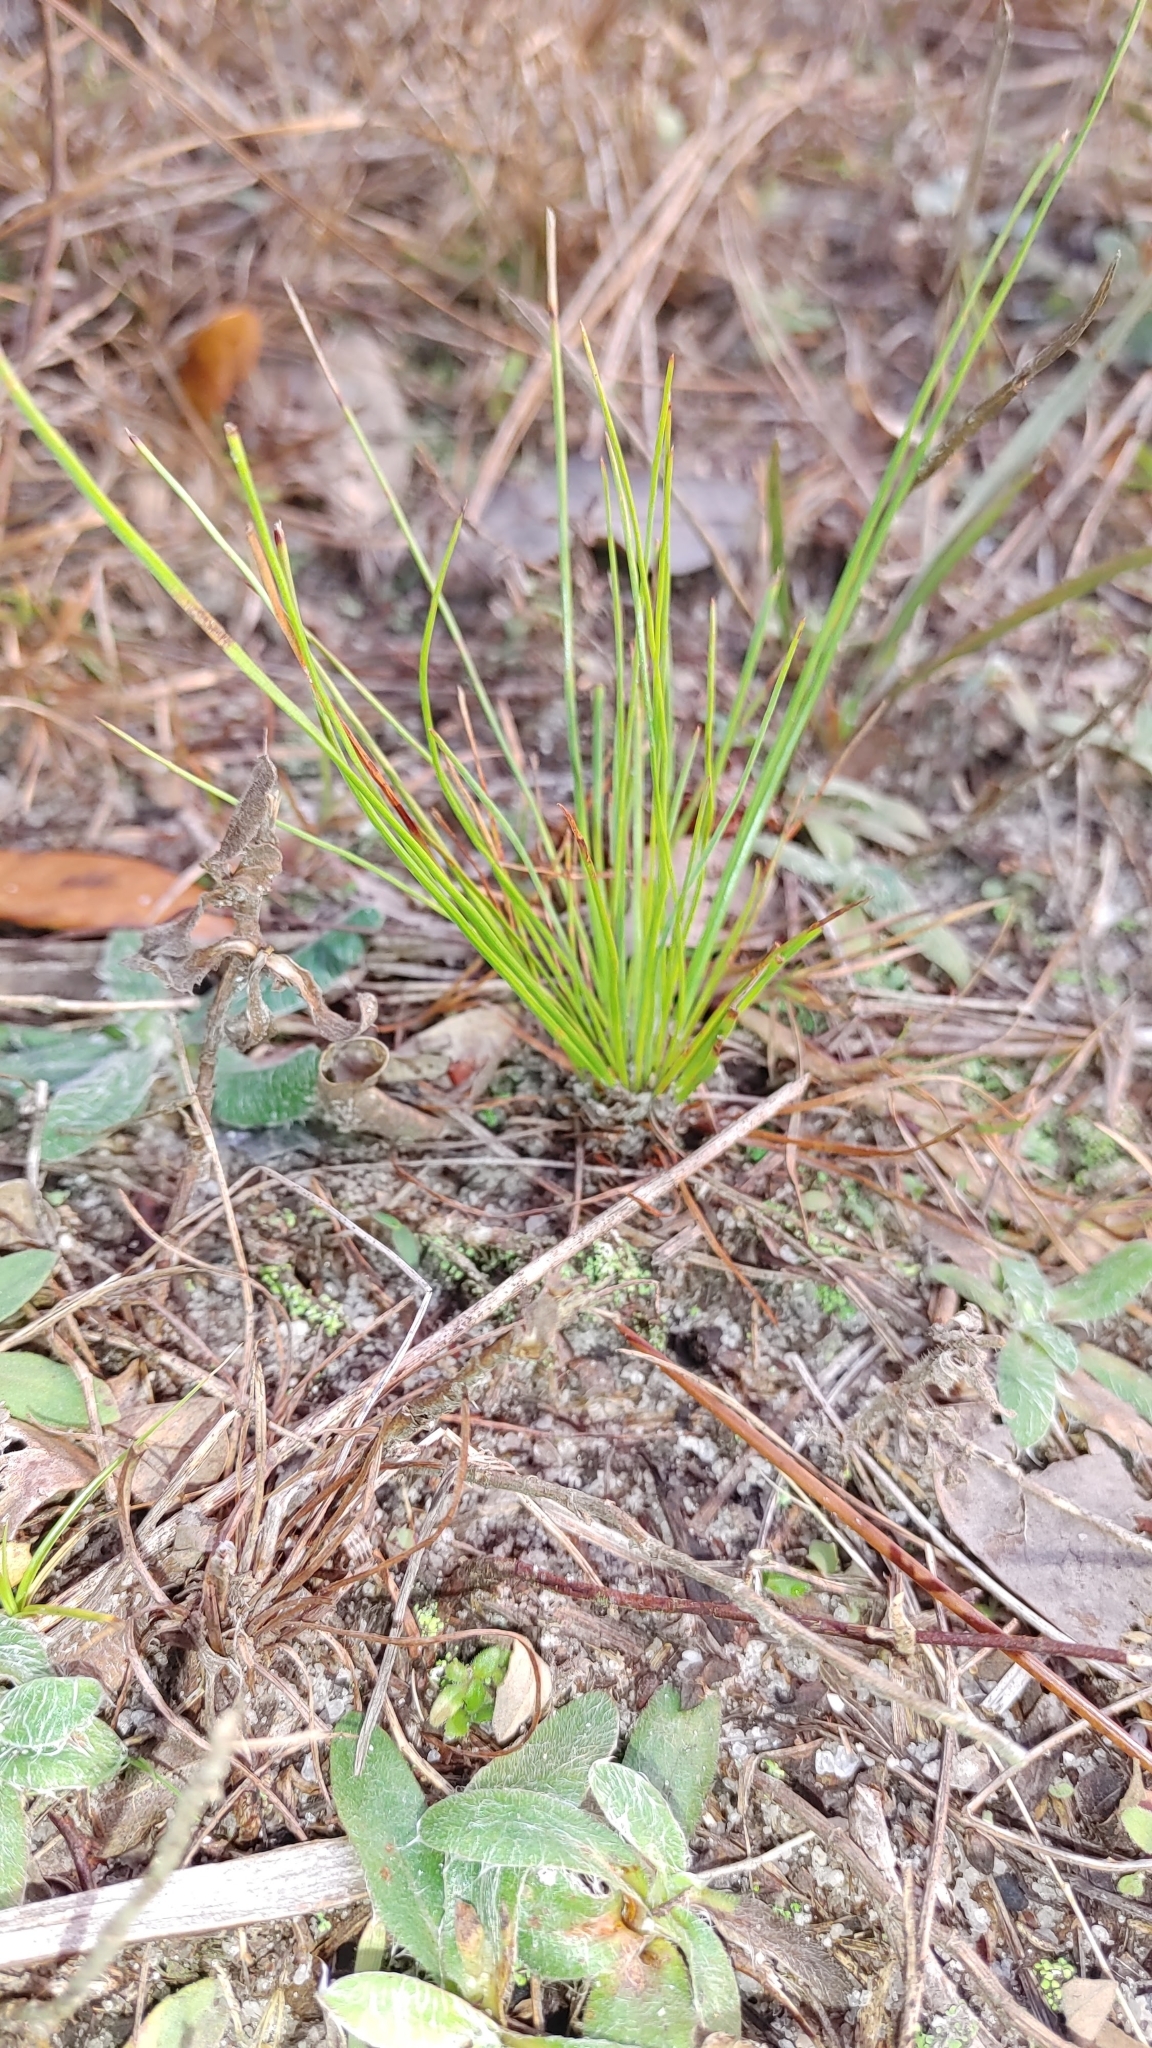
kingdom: Plantae
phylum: Tracheophyta
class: Pinopsida
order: Pinales
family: Pinaceae
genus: Pinus
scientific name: Pinus palustris
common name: Longleaf pine
